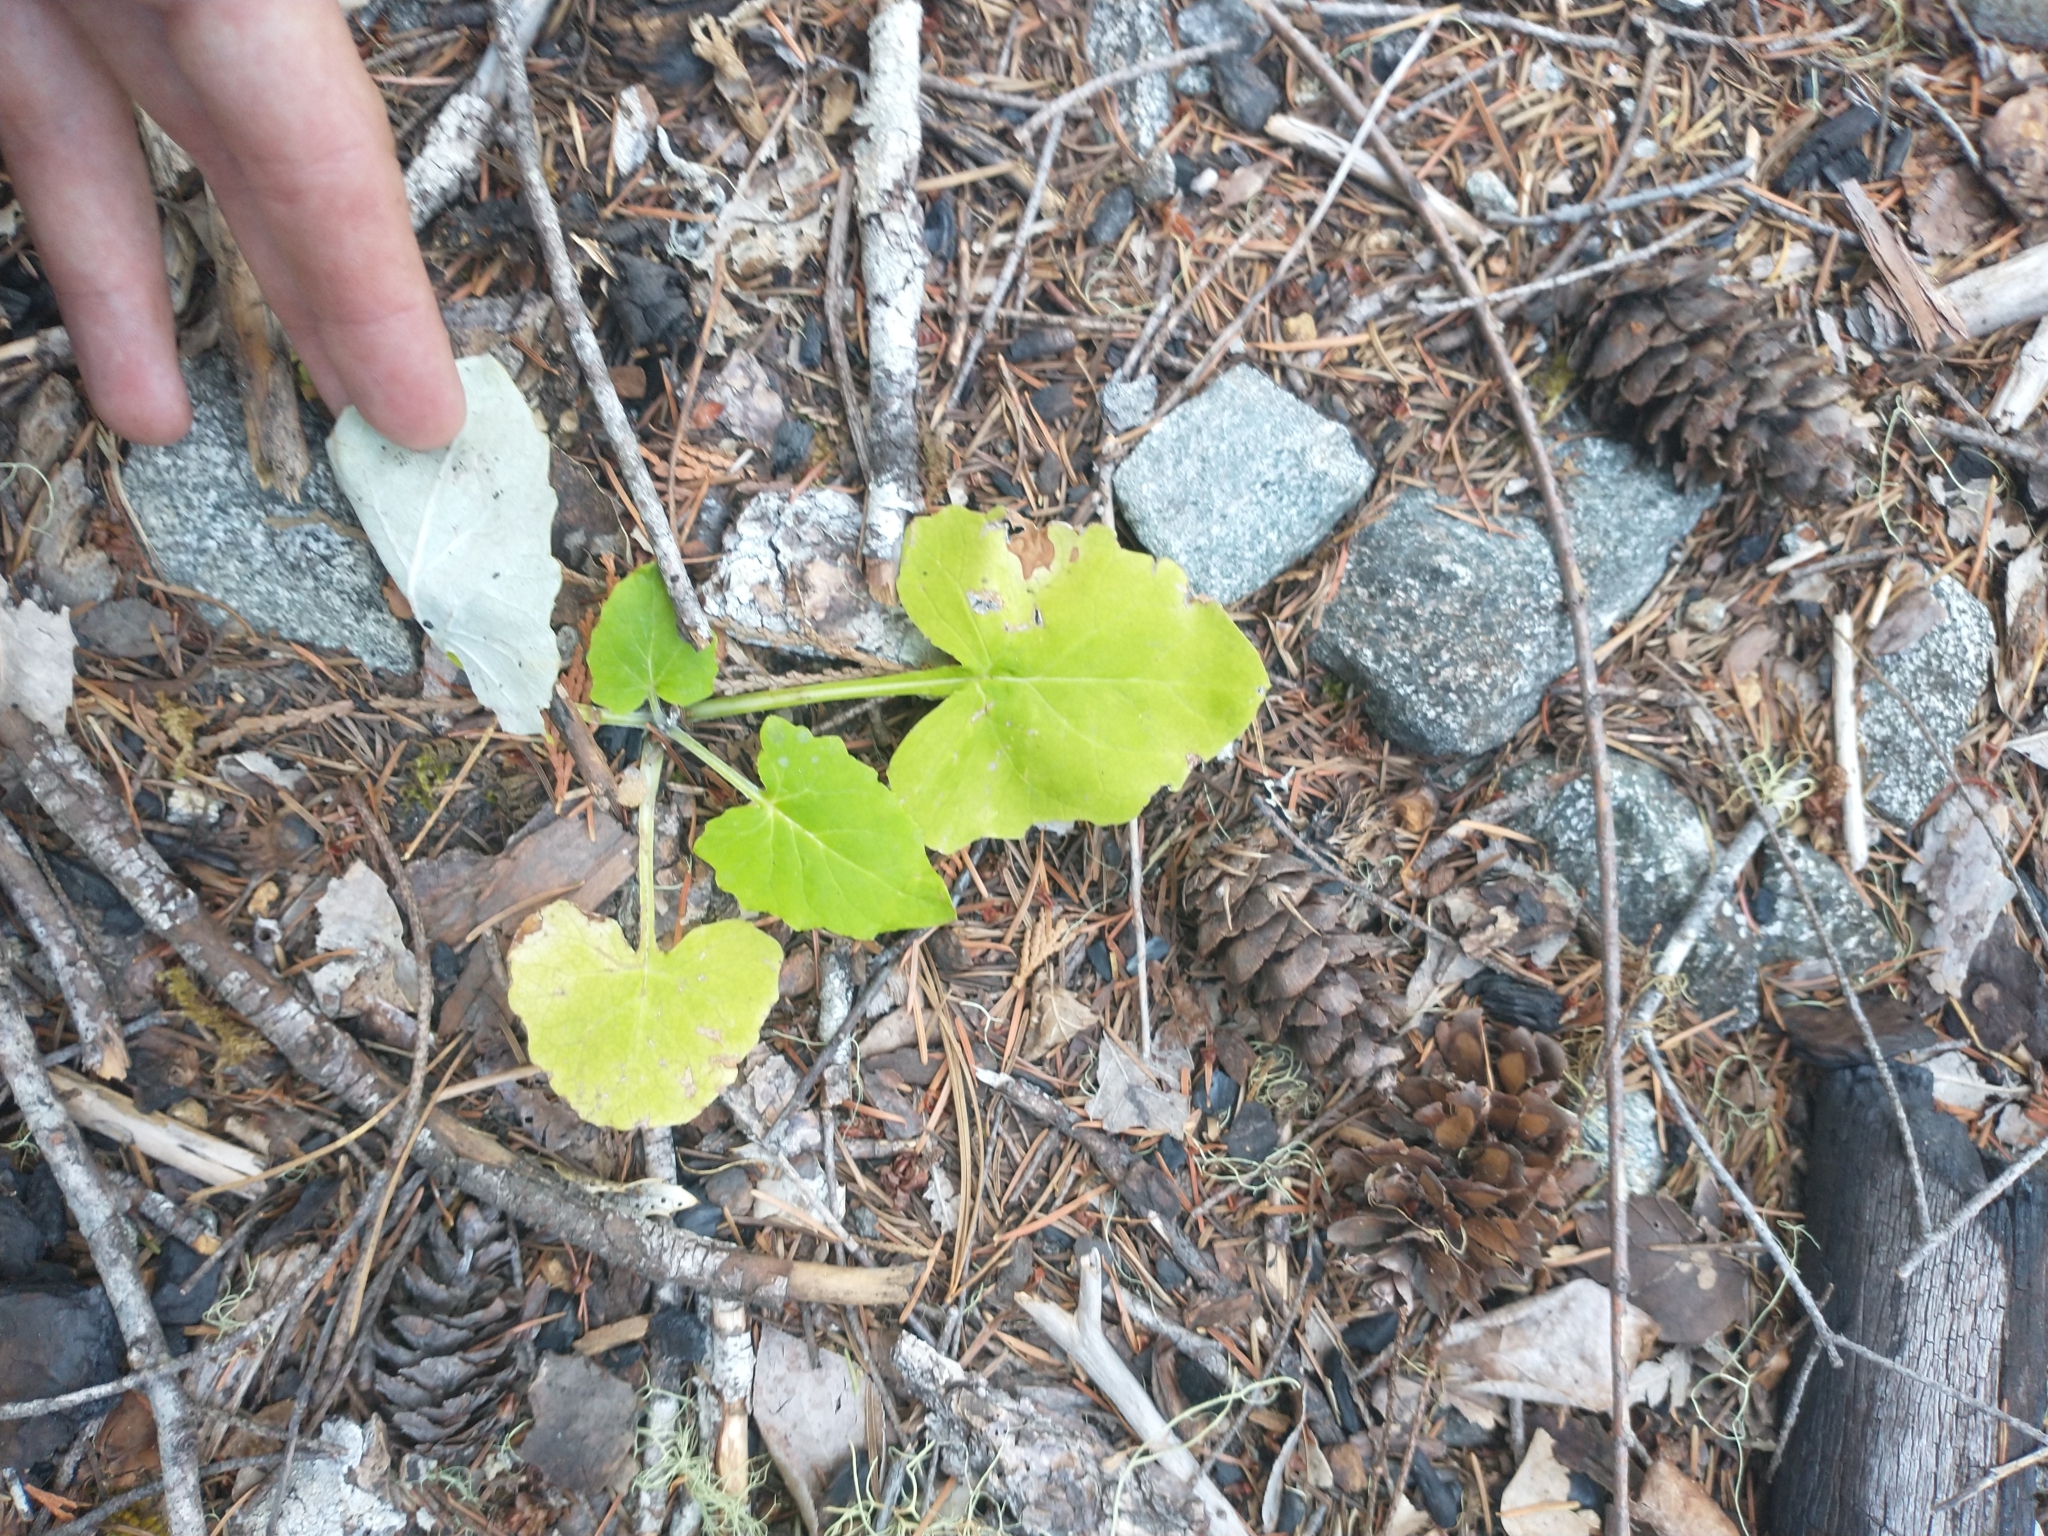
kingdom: Plantae
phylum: Tracheophyta
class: Magnoliopsida
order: Asterales
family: Asteraceae
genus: Adenocaulon
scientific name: Adenocaulon bicolor
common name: Trailplant
